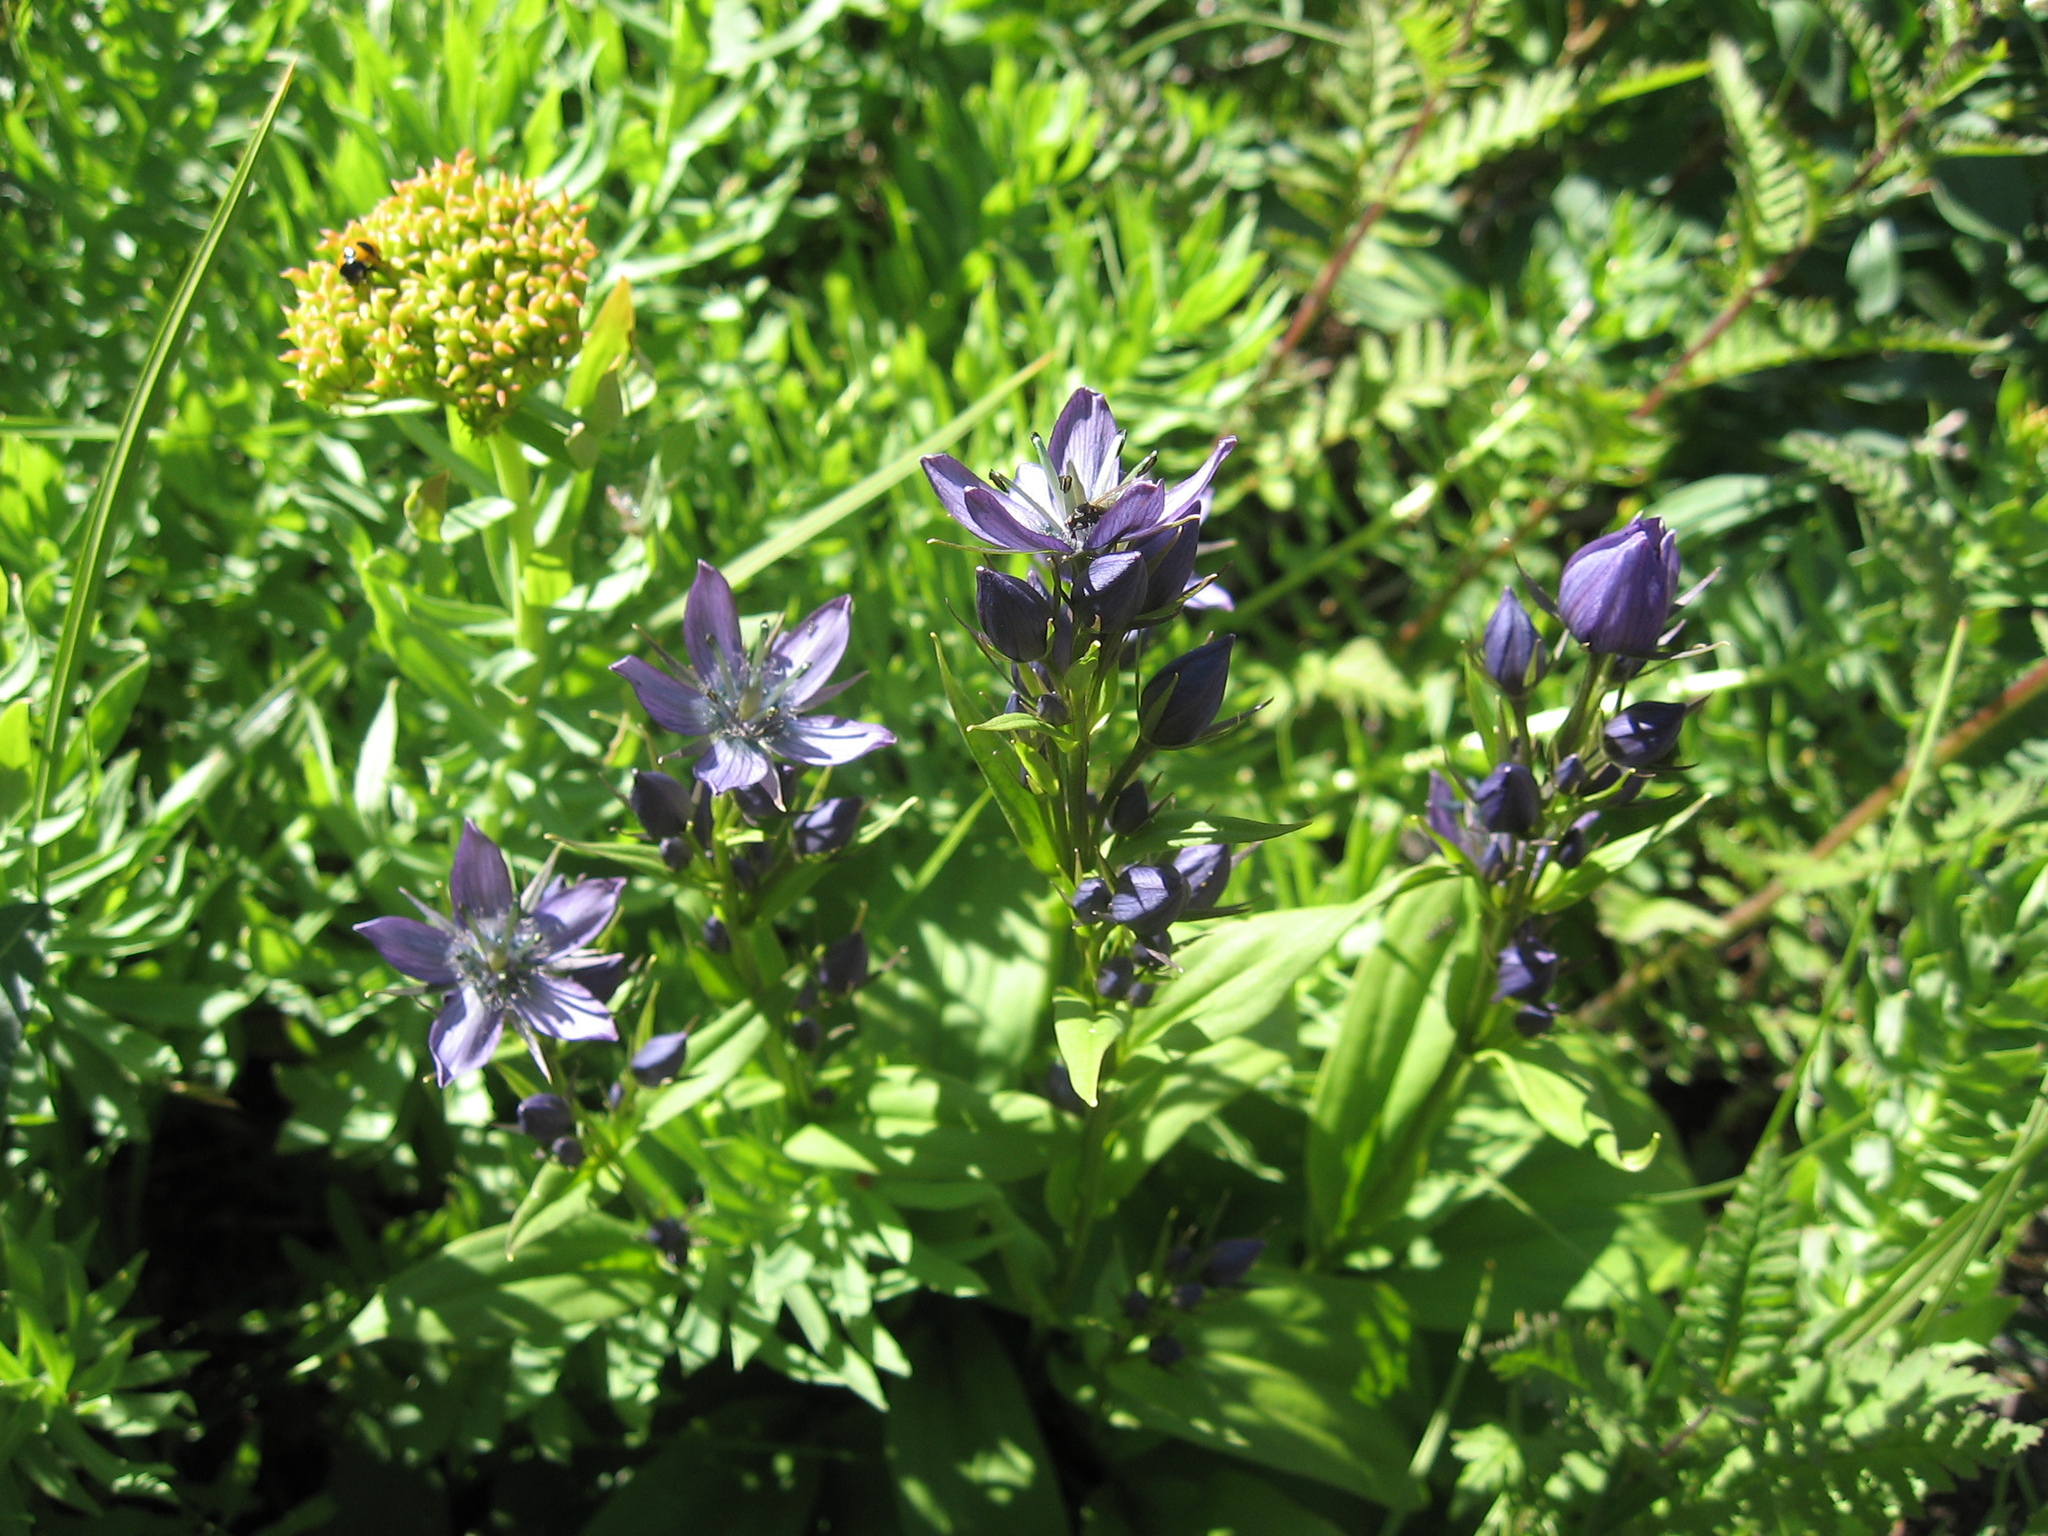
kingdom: Plantae
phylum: Tracheophyta
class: Magnoliopsida
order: Gentianales
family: Gentianaceae
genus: Swertia
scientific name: Swertia obtusa
